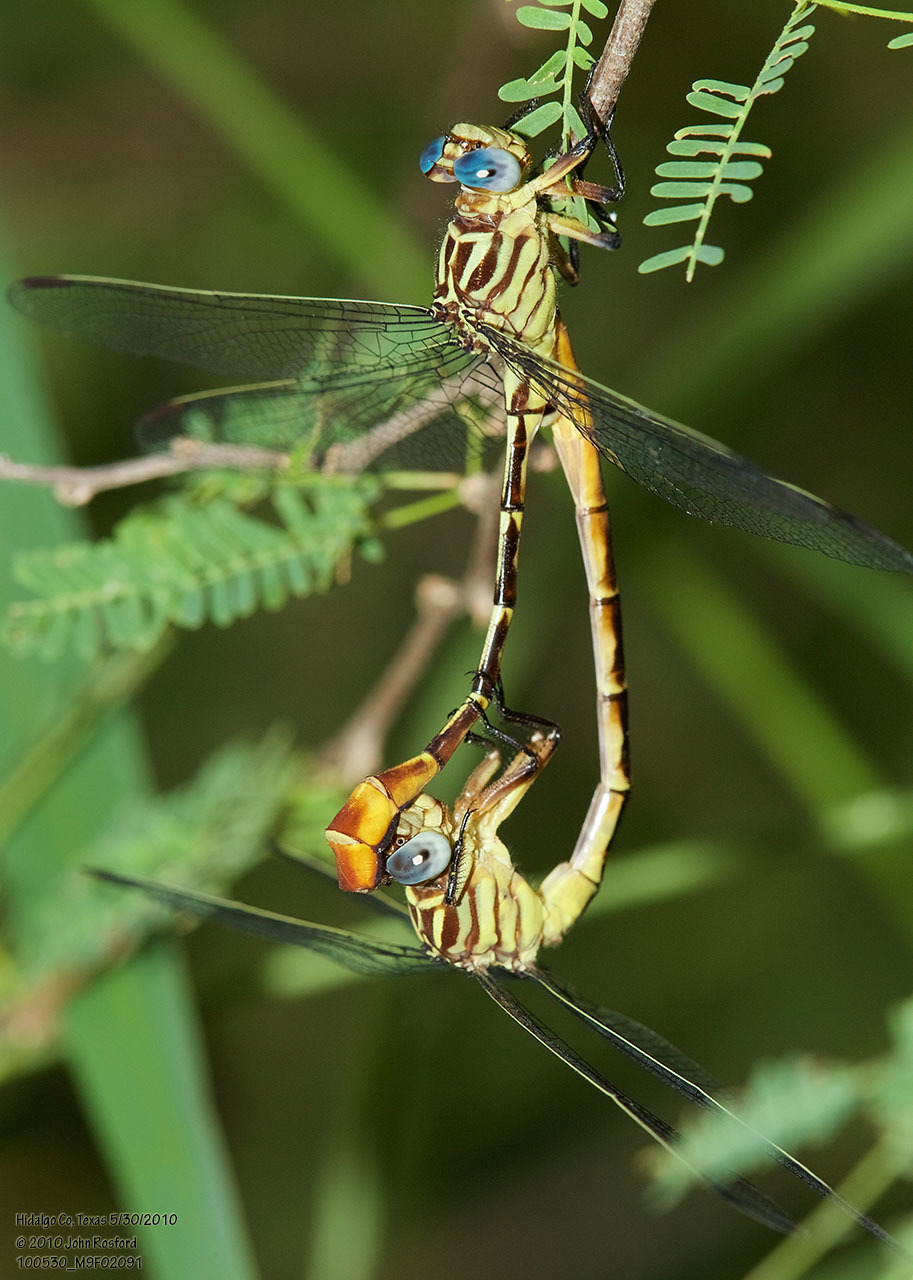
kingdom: Animalia
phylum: Arthropoda
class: Insecta
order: Odonata
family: Gomphidae
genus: Stylurus
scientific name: Stylurus plagiatus
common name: Russet-tipped clubtail
